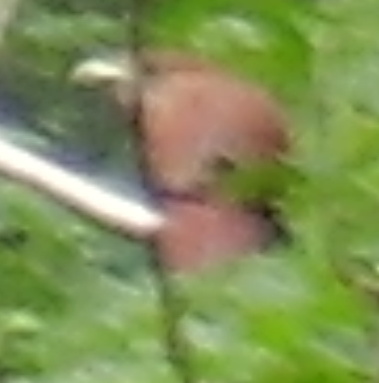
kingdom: Animalia
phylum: Chordata
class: Aves
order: Cuculiformes
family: Cuculidae
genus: Piaya
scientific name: Piaya cayana
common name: Squirrel cuckoo
